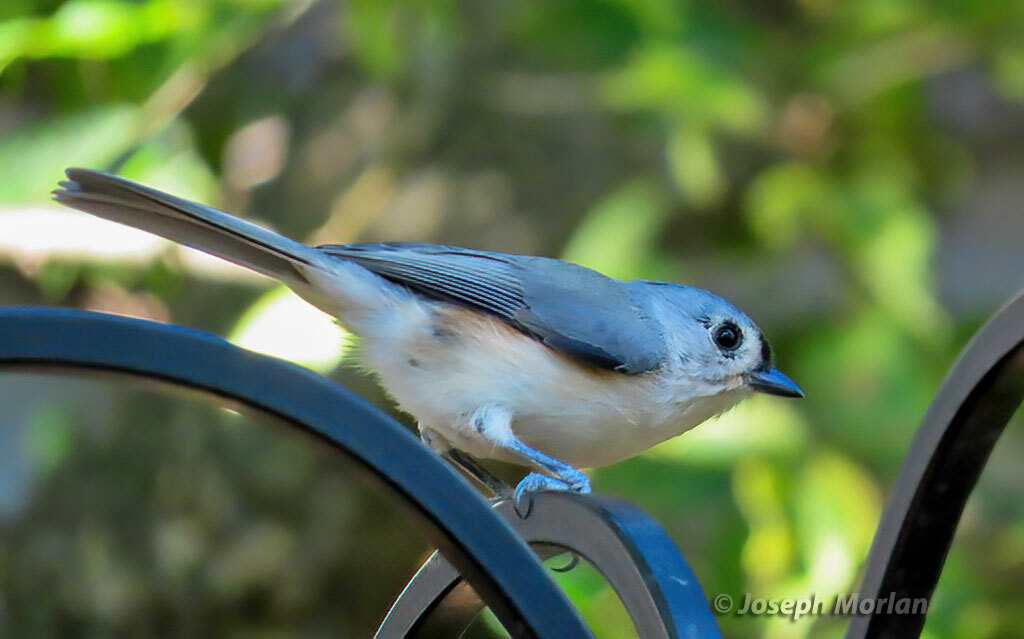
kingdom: Animalia
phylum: Chordata
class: Aves
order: Passeriformes
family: Paridae
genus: Baeolophus
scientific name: Baeolophus bicolor
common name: Tufted titmouse
